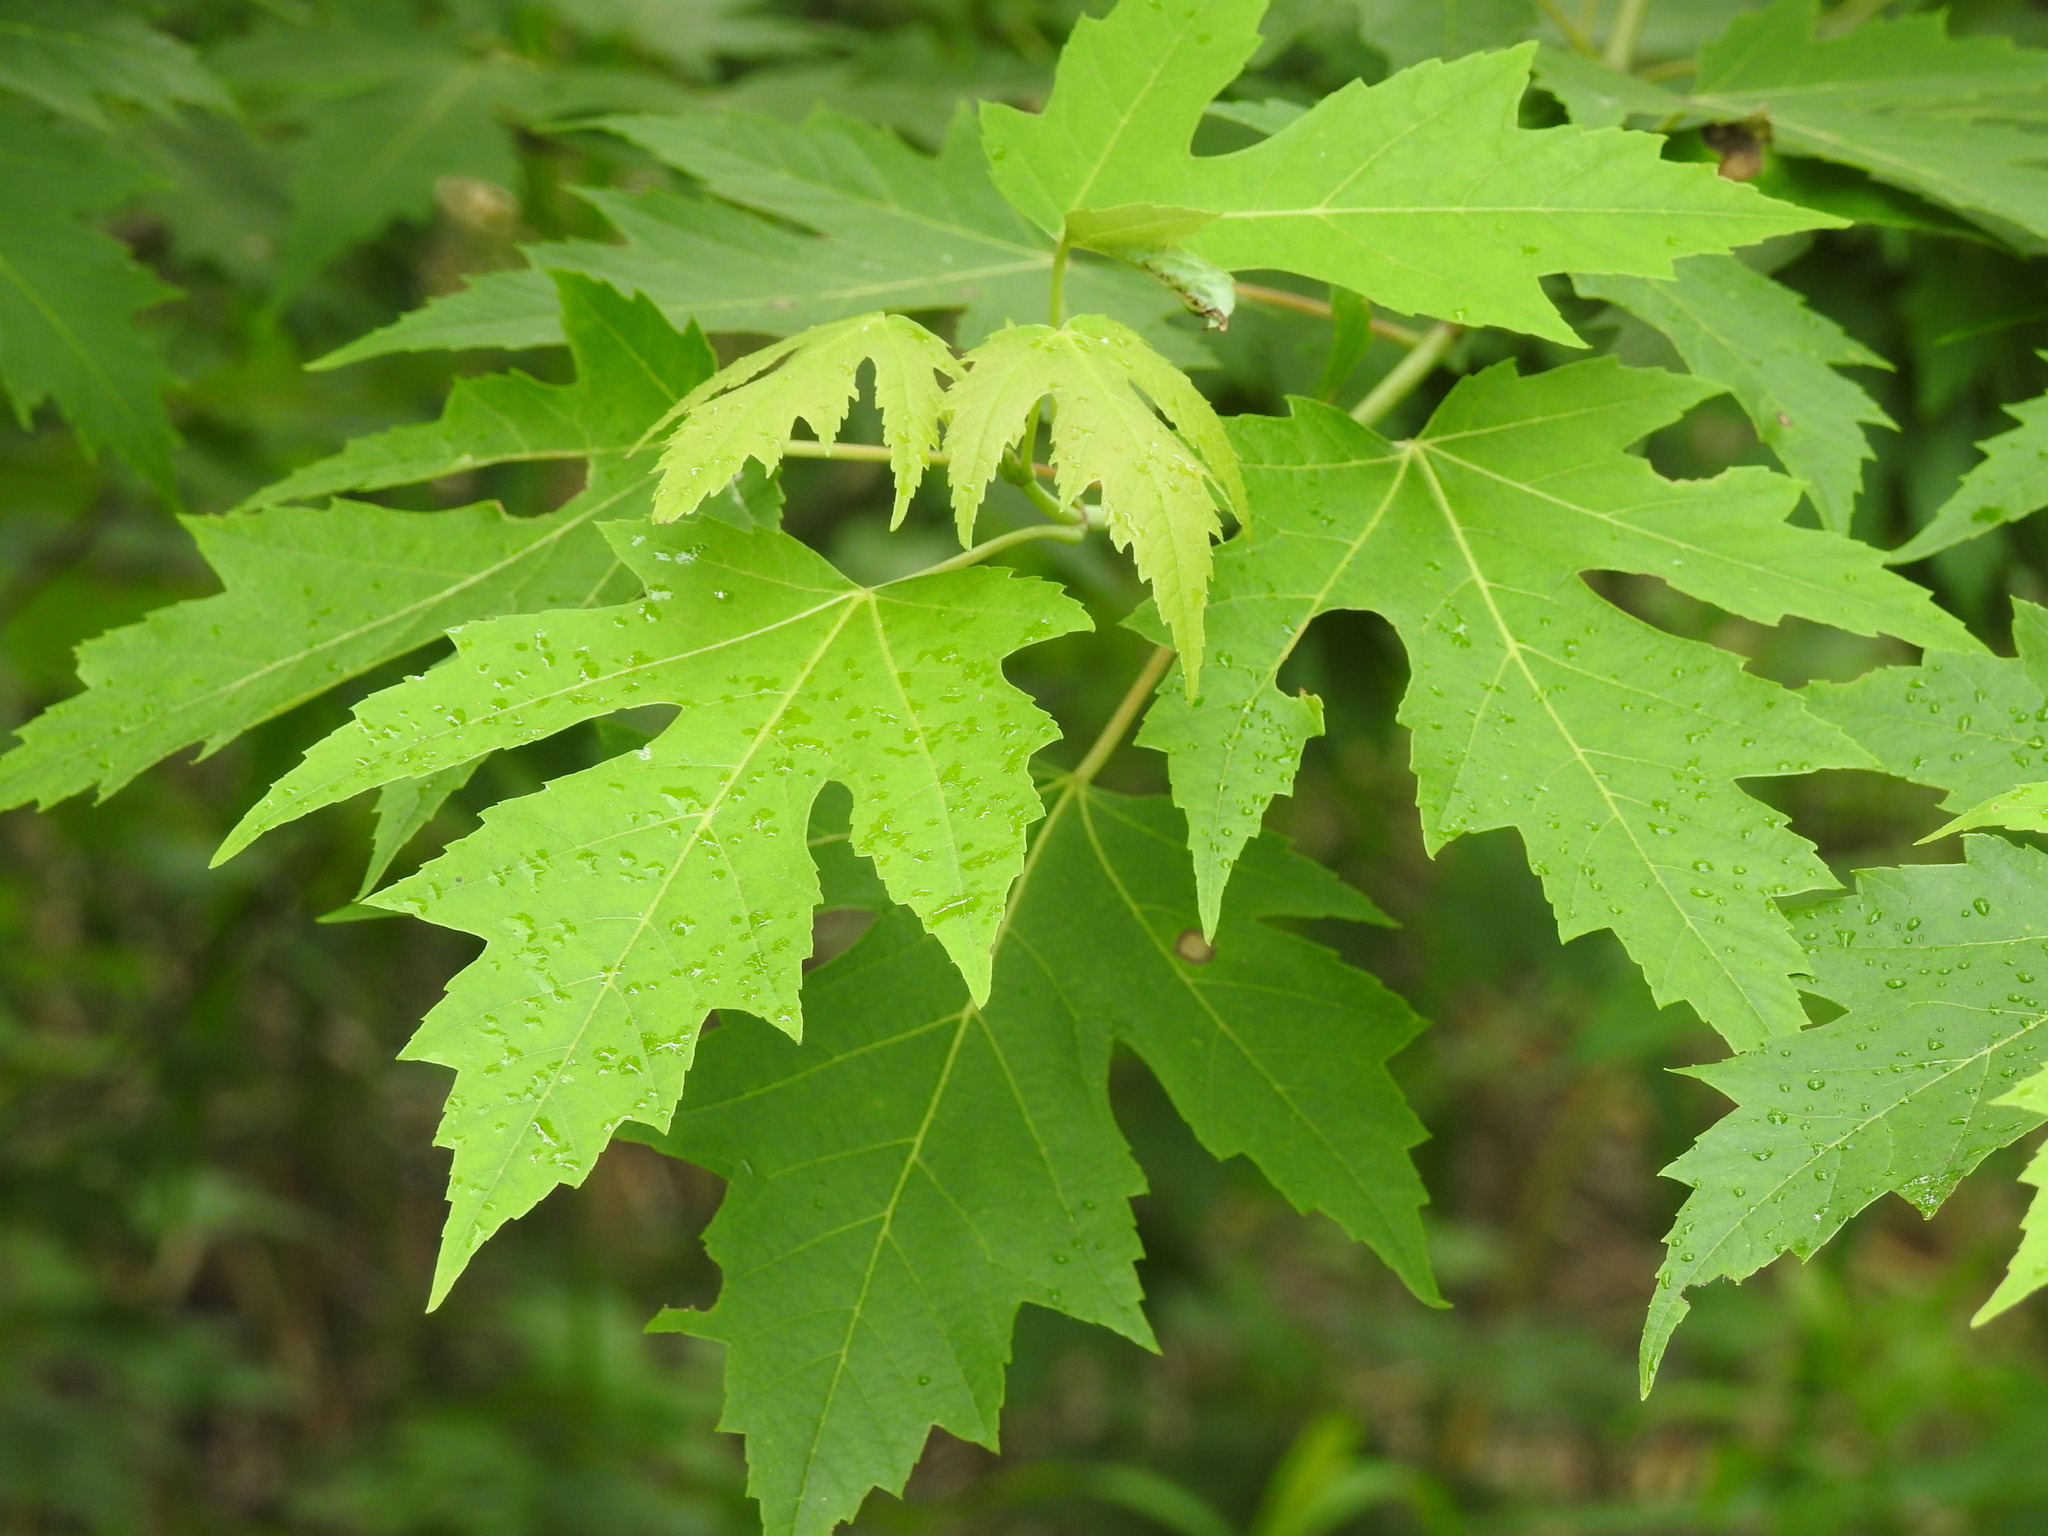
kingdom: Plantae
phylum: Tracheophyta
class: Magnoliopsida
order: Sapindales
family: Sapindaceae
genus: Acer
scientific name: Acer saccharinum
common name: Silver maple
